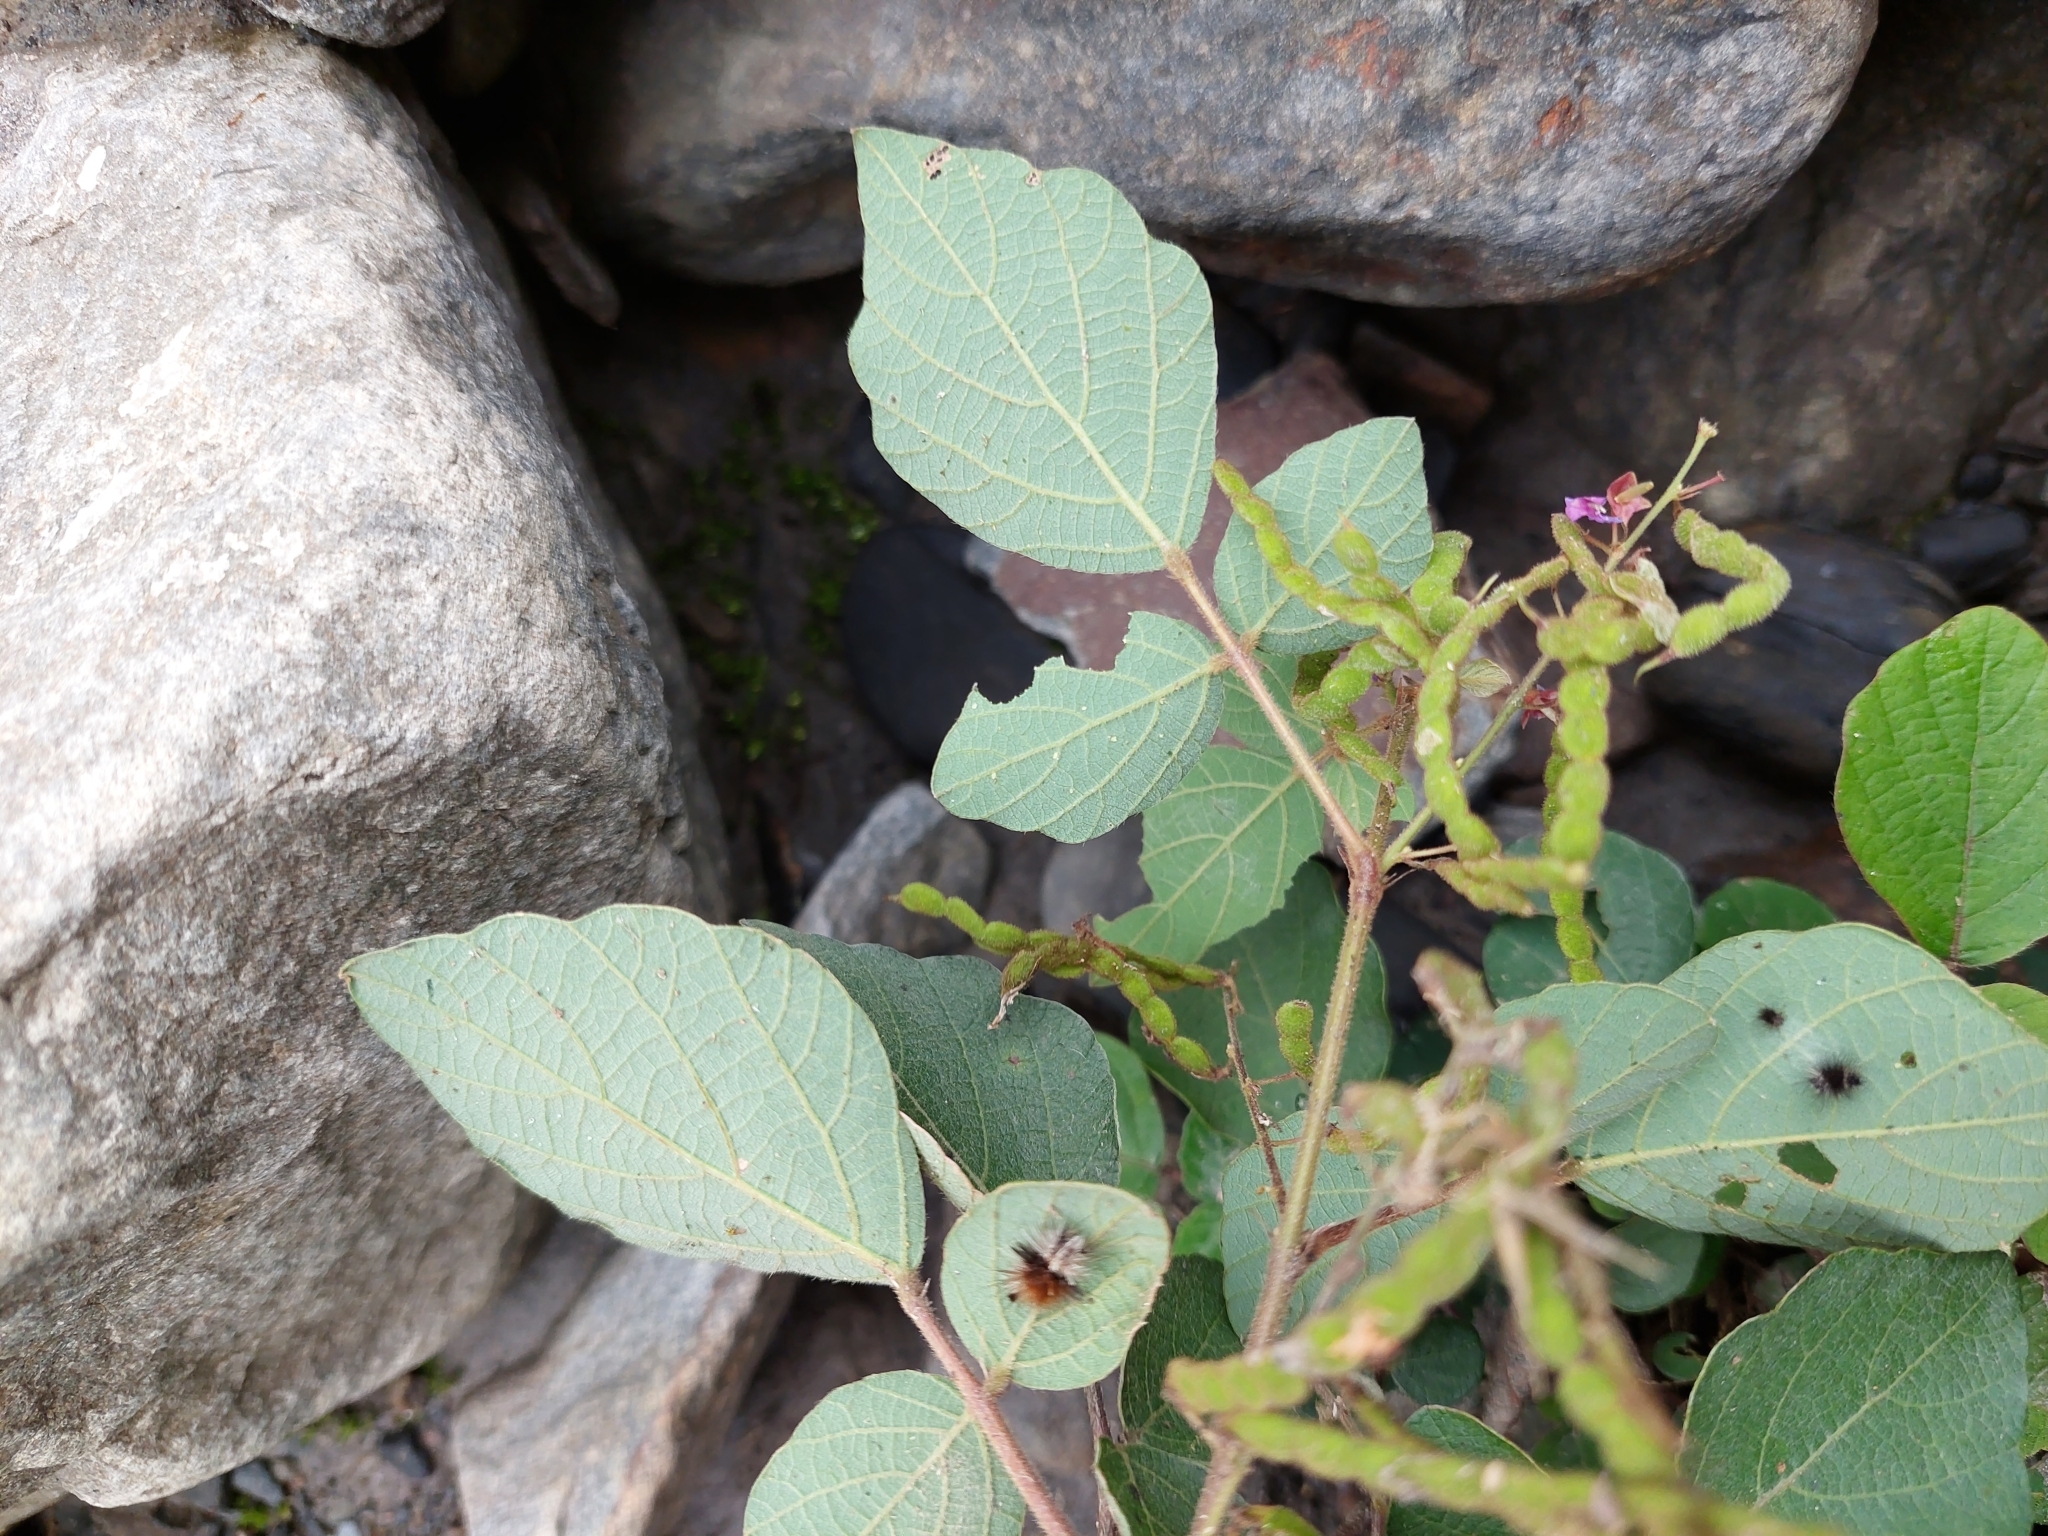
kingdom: Plantae
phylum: Tracheophyta
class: Magnoliopsida
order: Fabales
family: Fabaceae
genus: Puhuaea
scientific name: Puhuaea sequax
